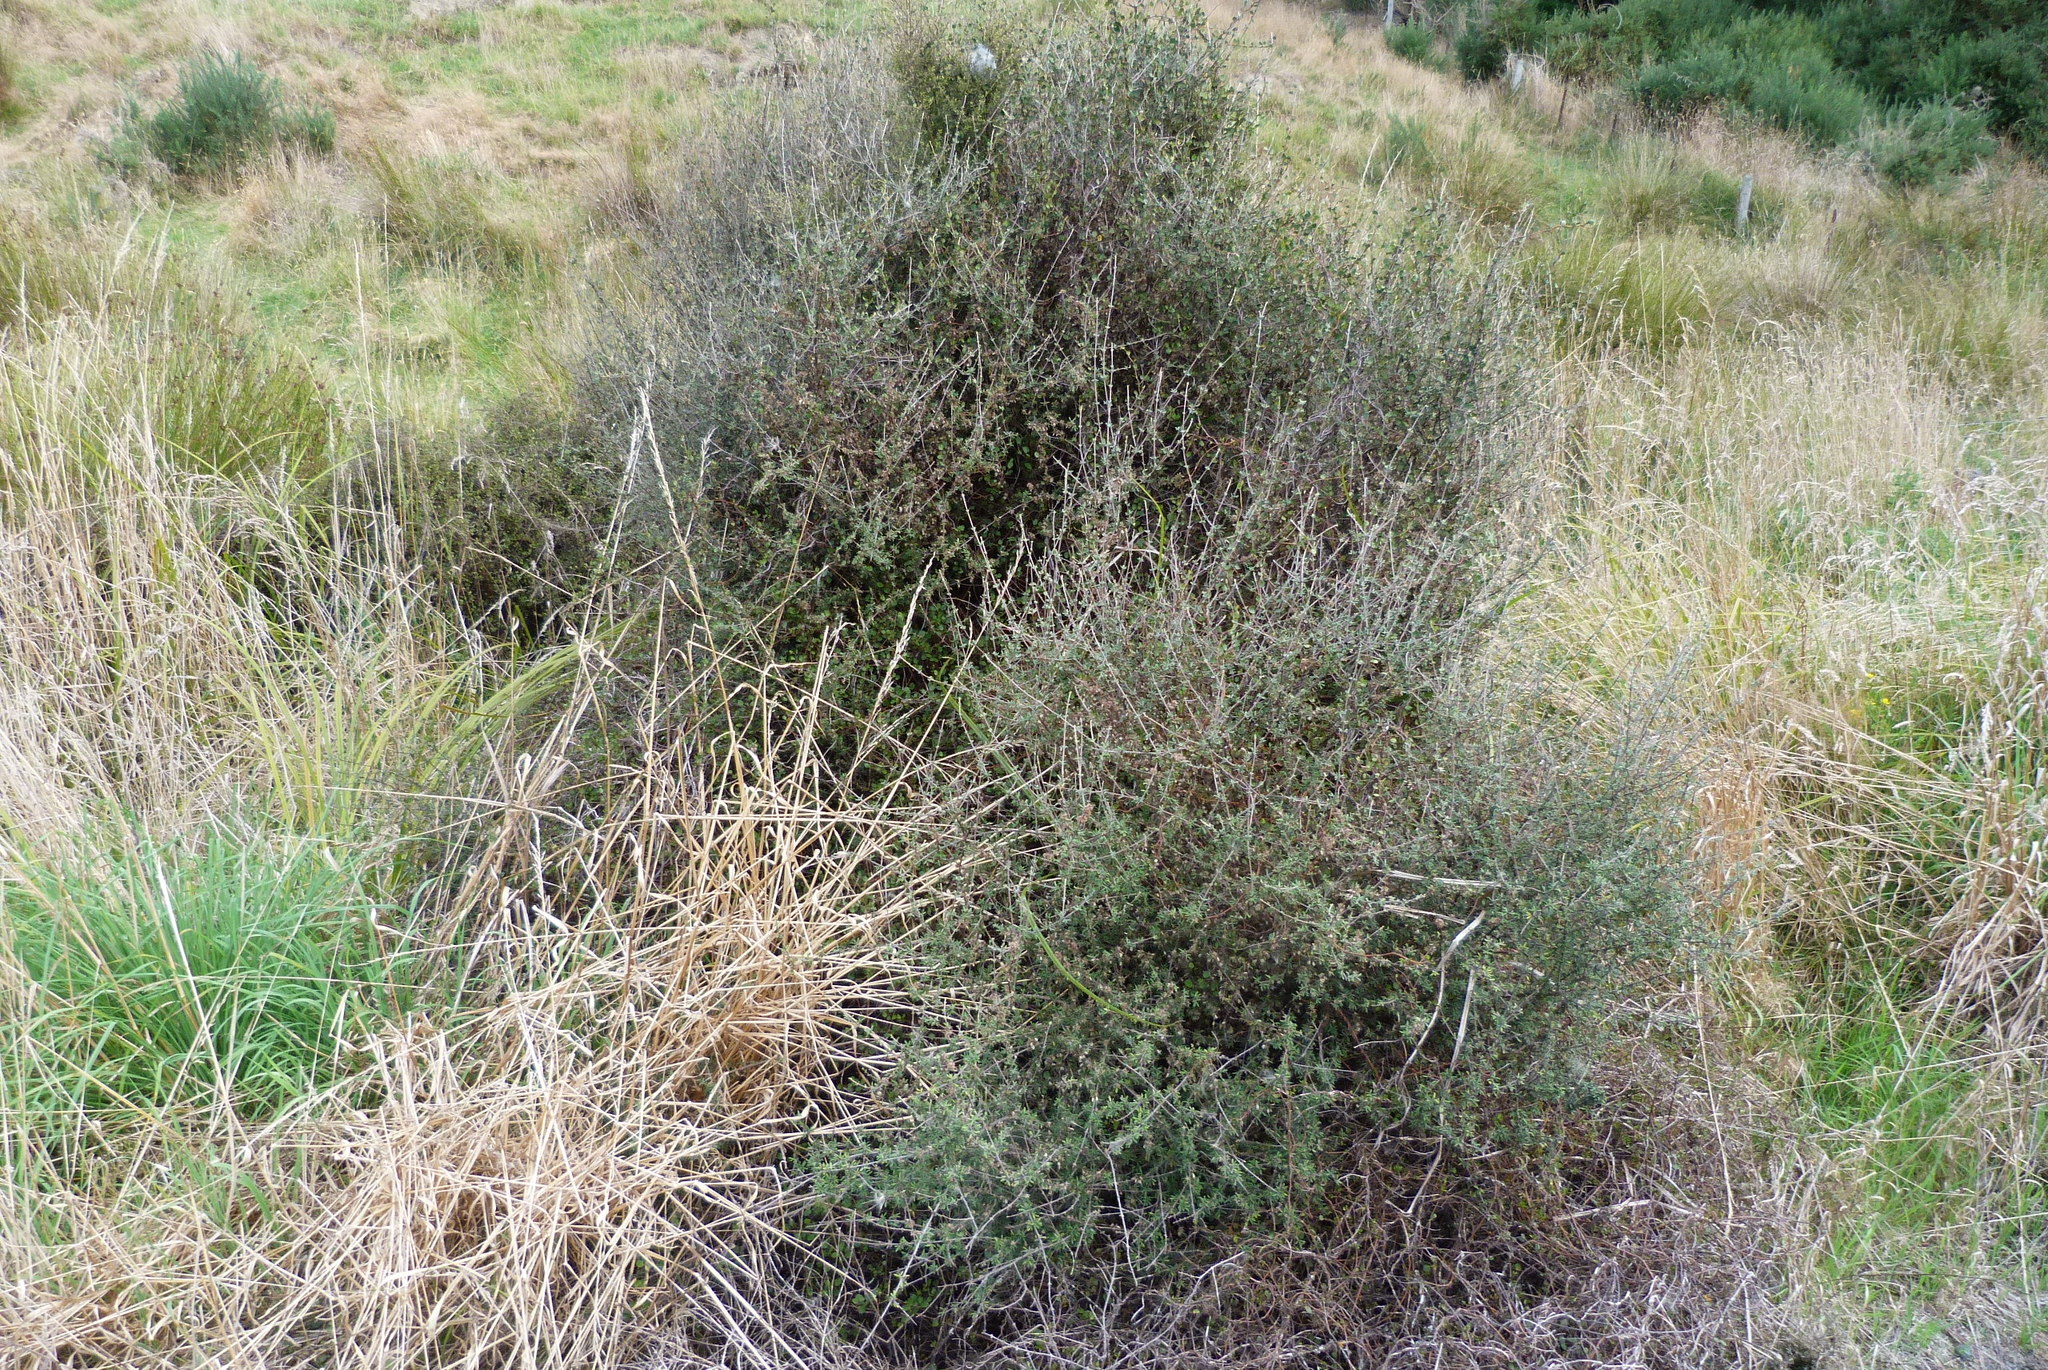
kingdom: Plantae
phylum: Tracheophyta
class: Magnoliopsida
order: Asterales
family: Asteraceae
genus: Olearia
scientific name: Olearia bullata
